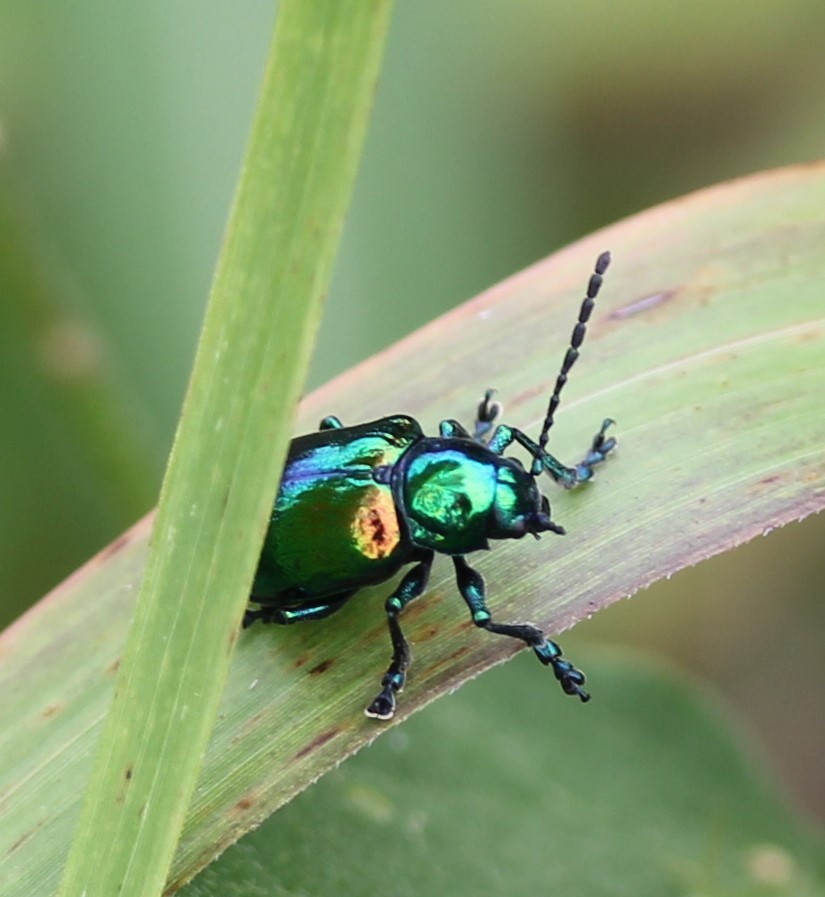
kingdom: Animalia
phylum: Arthropoda
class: Insecta
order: Coleoptera
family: Chrysomelidae
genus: Chrysochus
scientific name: Chrysochus auratus
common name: Dogbane leaf beetle
